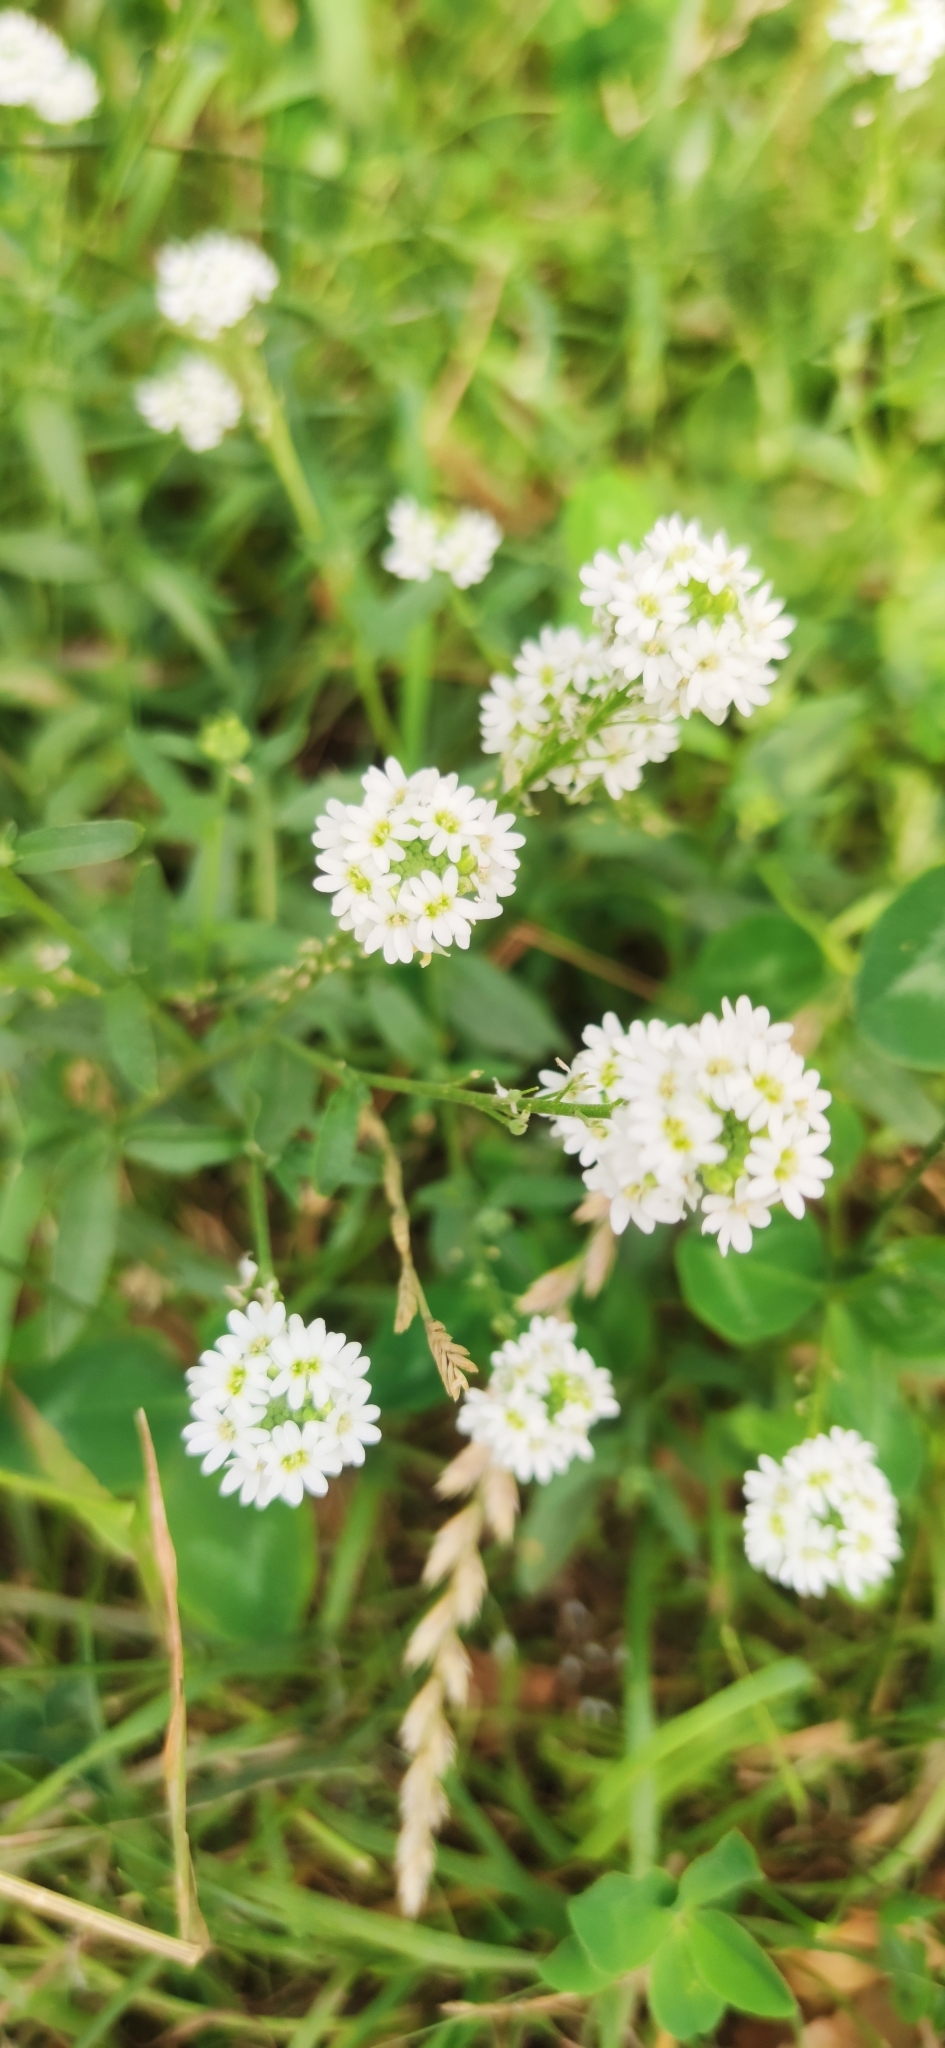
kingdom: Plantae
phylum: Tracheophyta
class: Magnoliopsida
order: Brassicales
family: Brassicaceae
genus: Berteroa
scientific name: Berteroa incana
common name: Hoary alison
